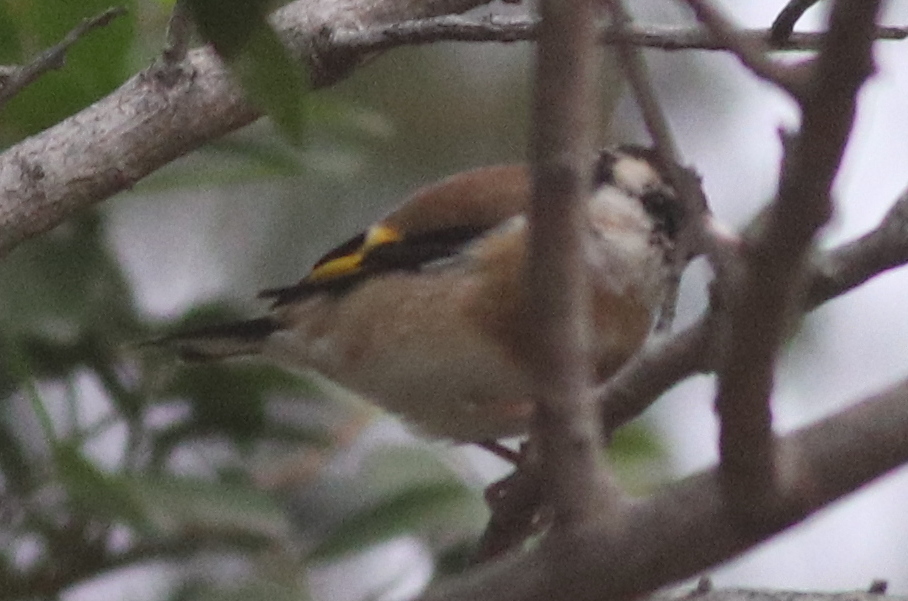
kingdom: Animalia
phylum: Chordata
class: Aves
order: Passeriformes
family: Fringillidae
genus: Carduelis
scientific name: Carduelis carduelis
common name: European goldfinch
